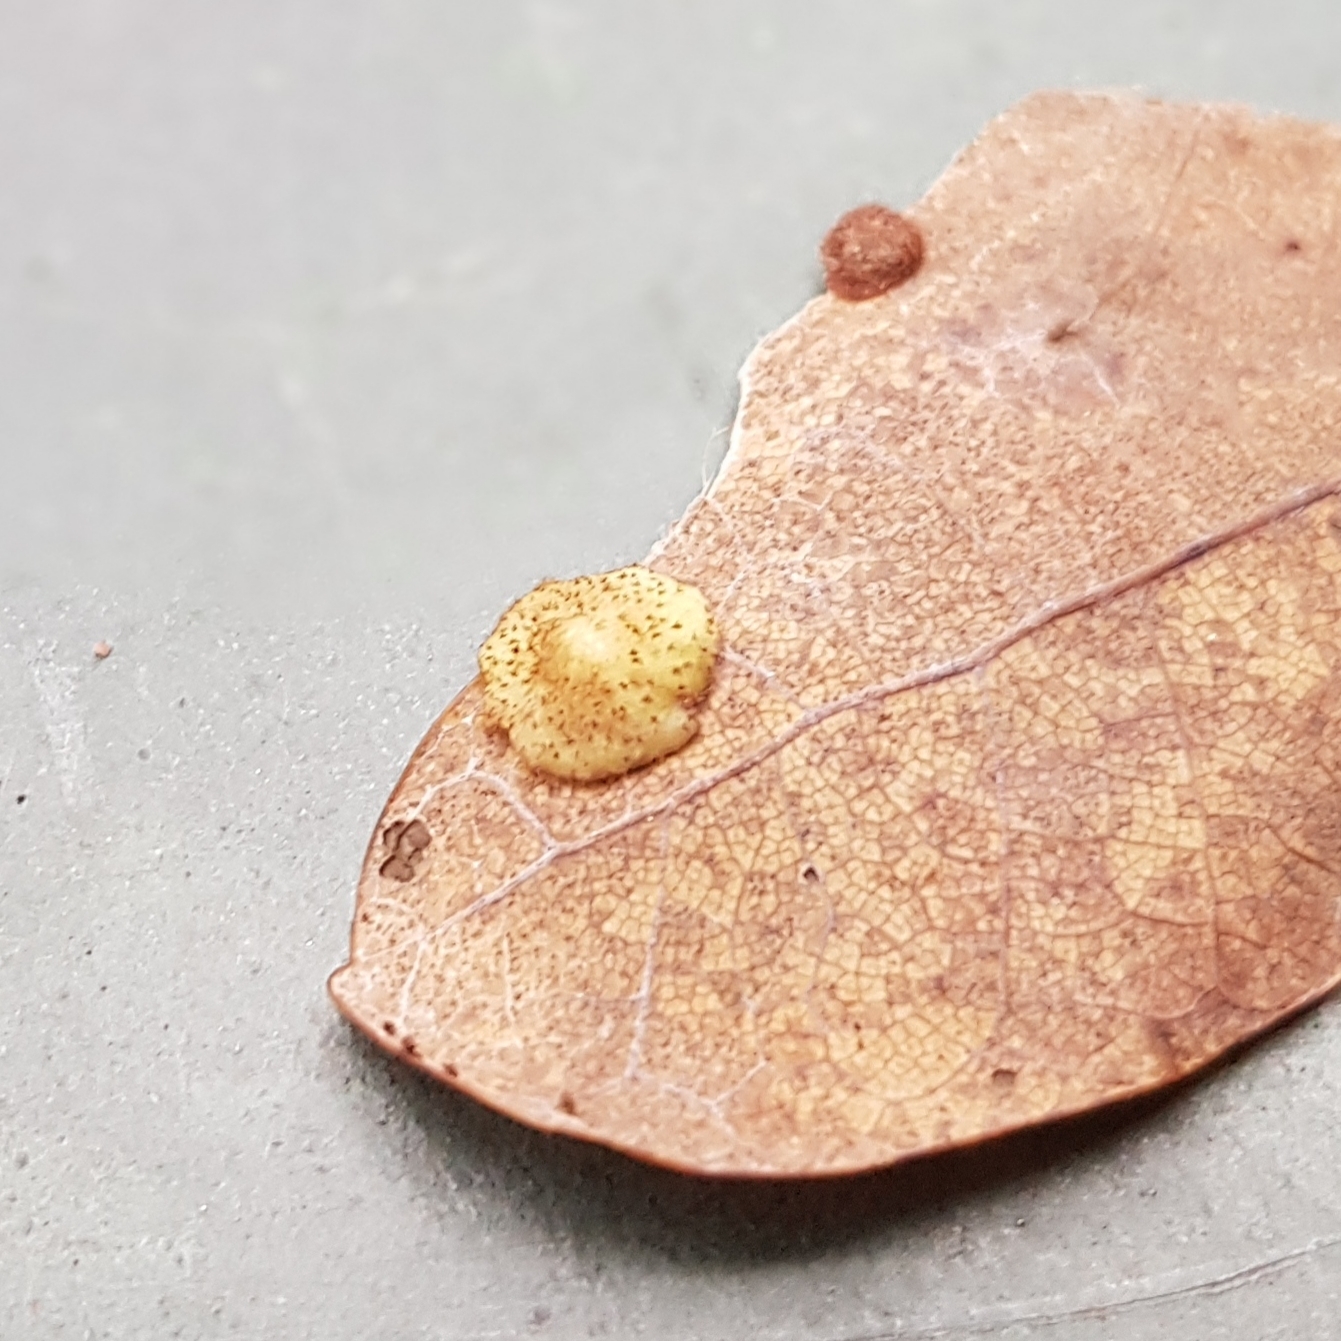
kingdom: Animalia
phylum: Arthropoda
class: Insecta
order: Hymenoptera
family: Cynipidae
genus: Neuroterus
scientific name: Neuroterus quercusbaccarum
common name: Common spangle gall
